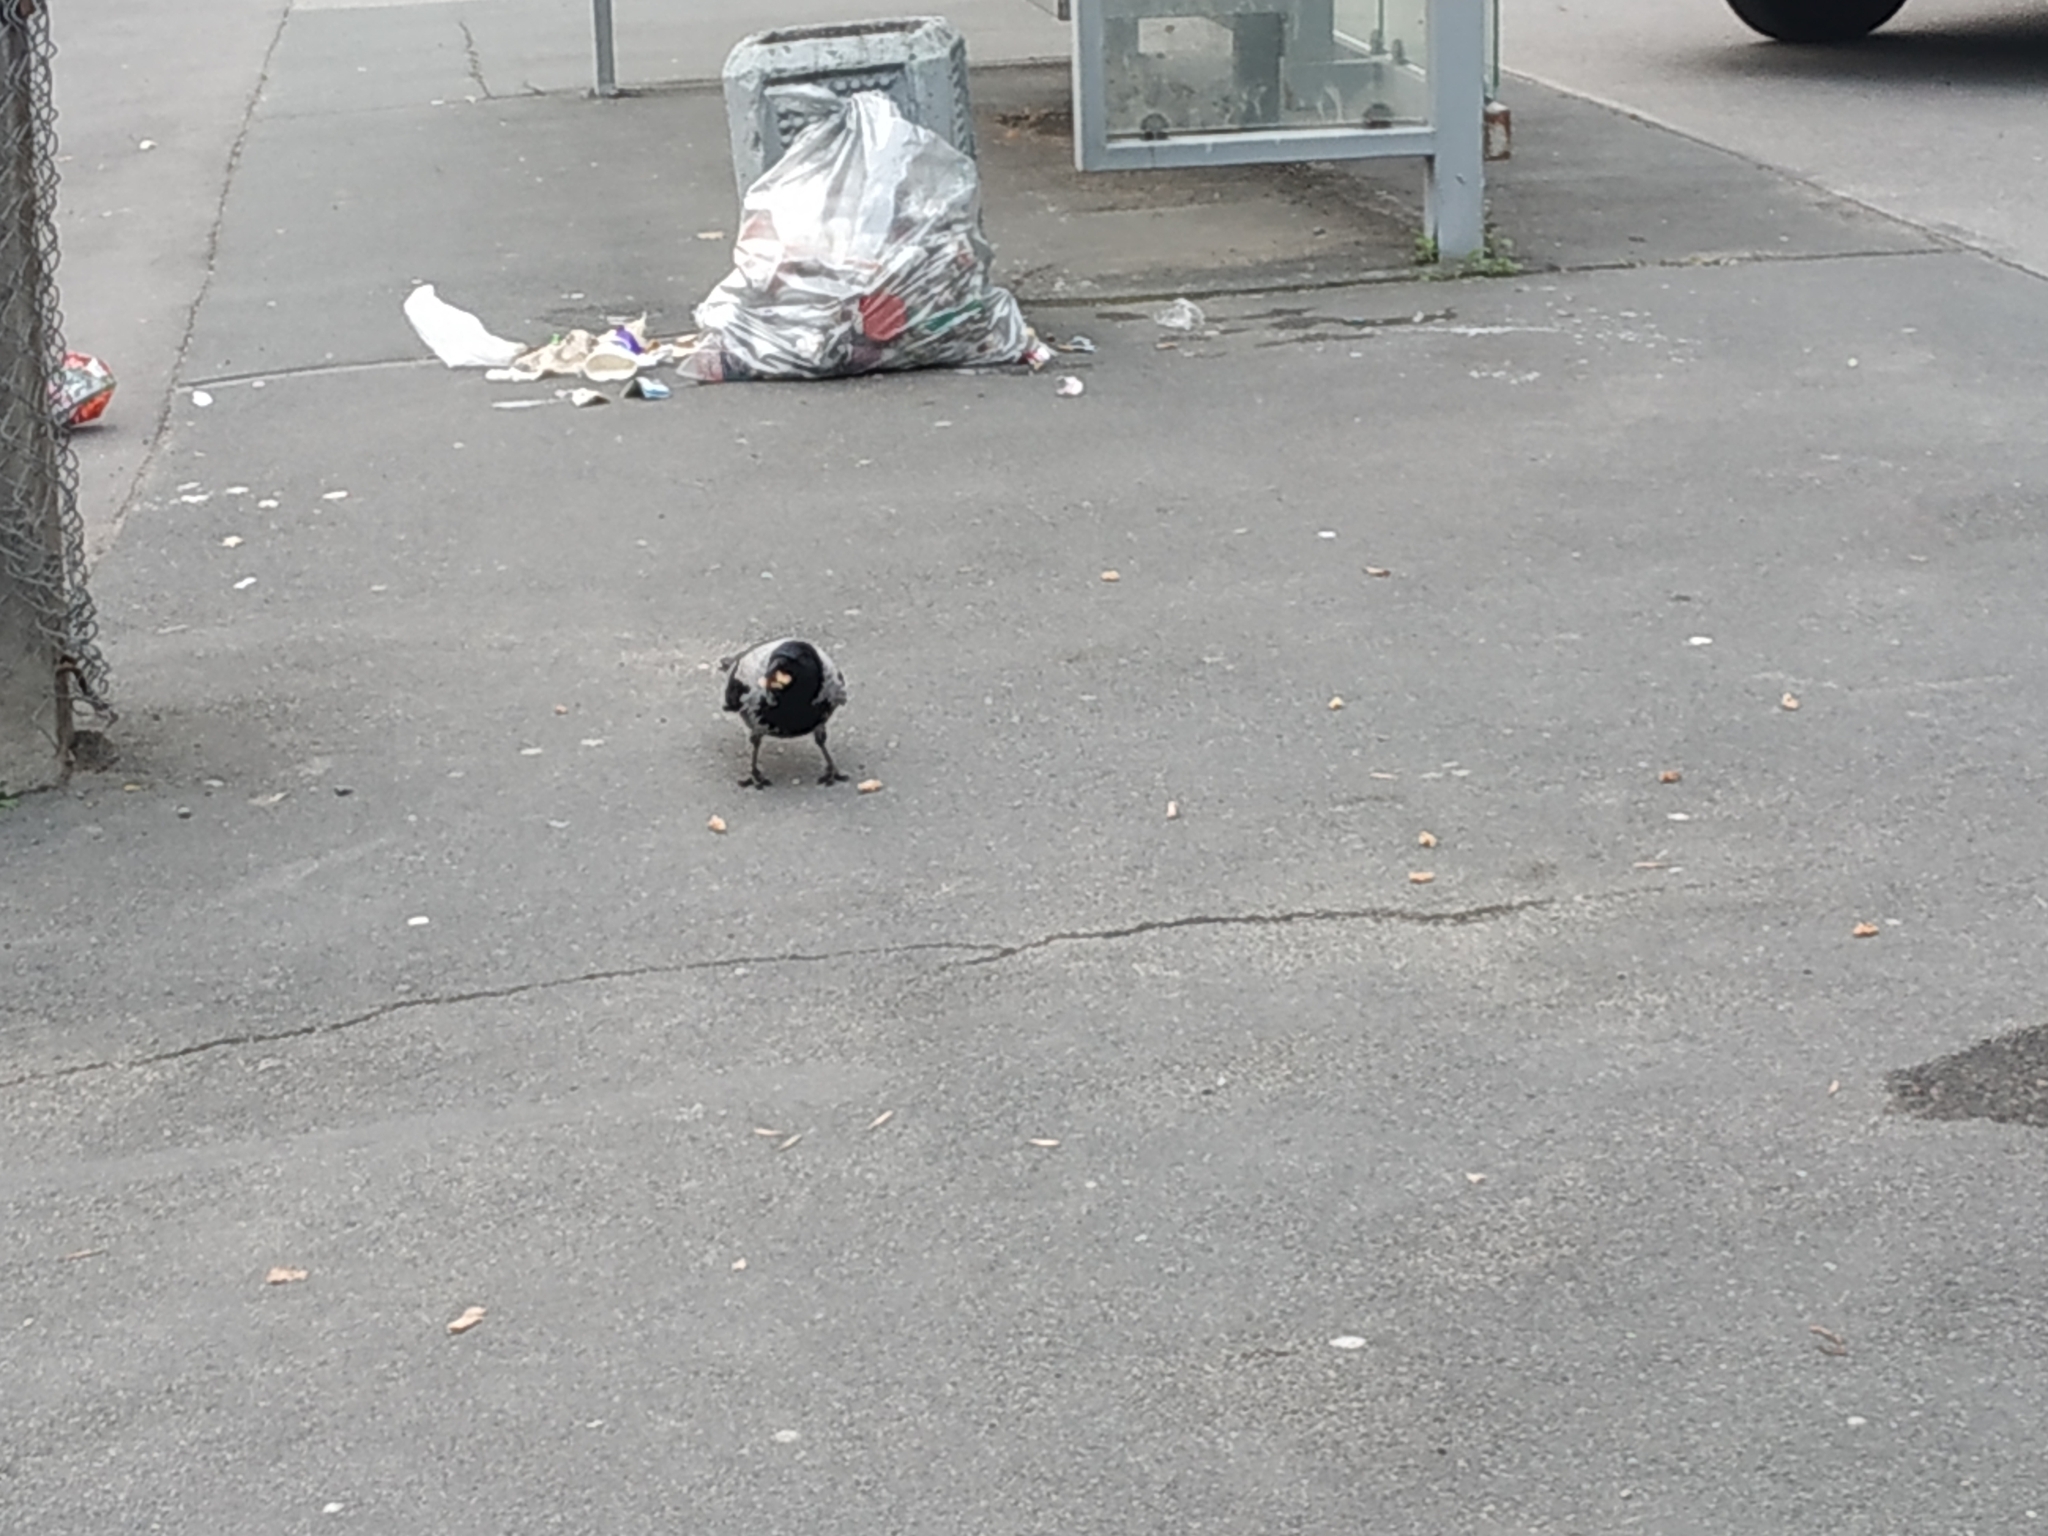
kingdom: Animalia
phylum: Chordata
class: Aves
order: Passeriformes
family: Corvidae
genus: Corvus
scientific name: Corvus cornix
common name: Hooded crow
